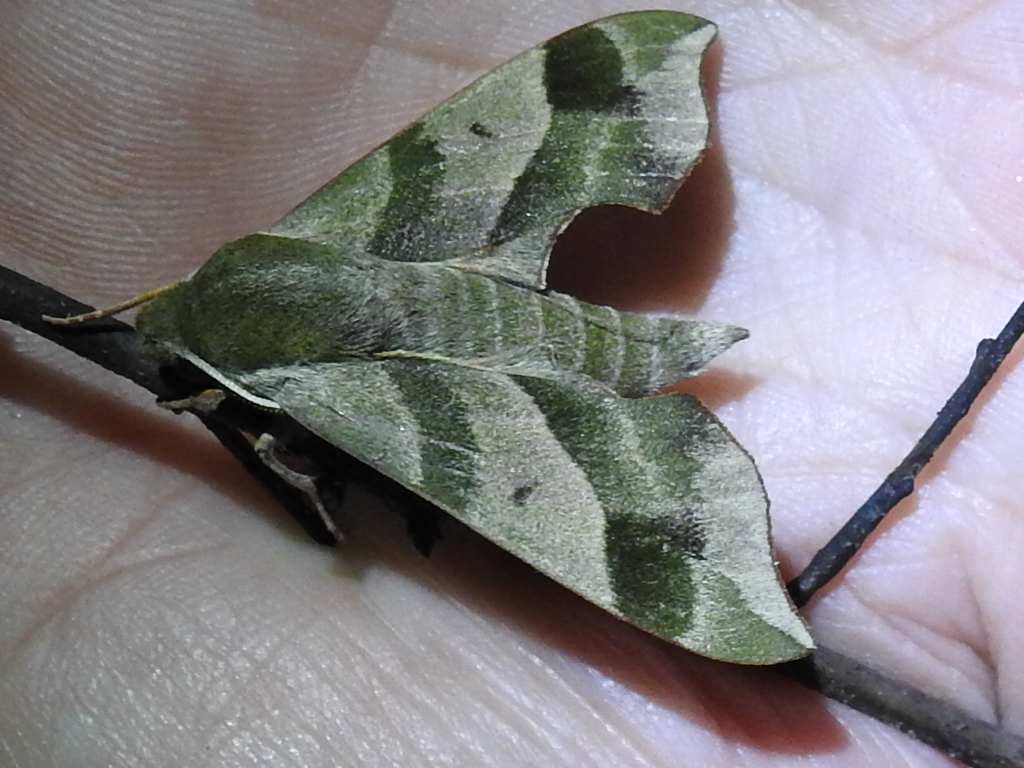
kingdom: Animalia
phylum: Arthropoda
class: Insecta
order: Lepidoptera
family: Sphingidae
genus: Darapsa
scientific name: Darapsa myron
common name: Hog sphinx
